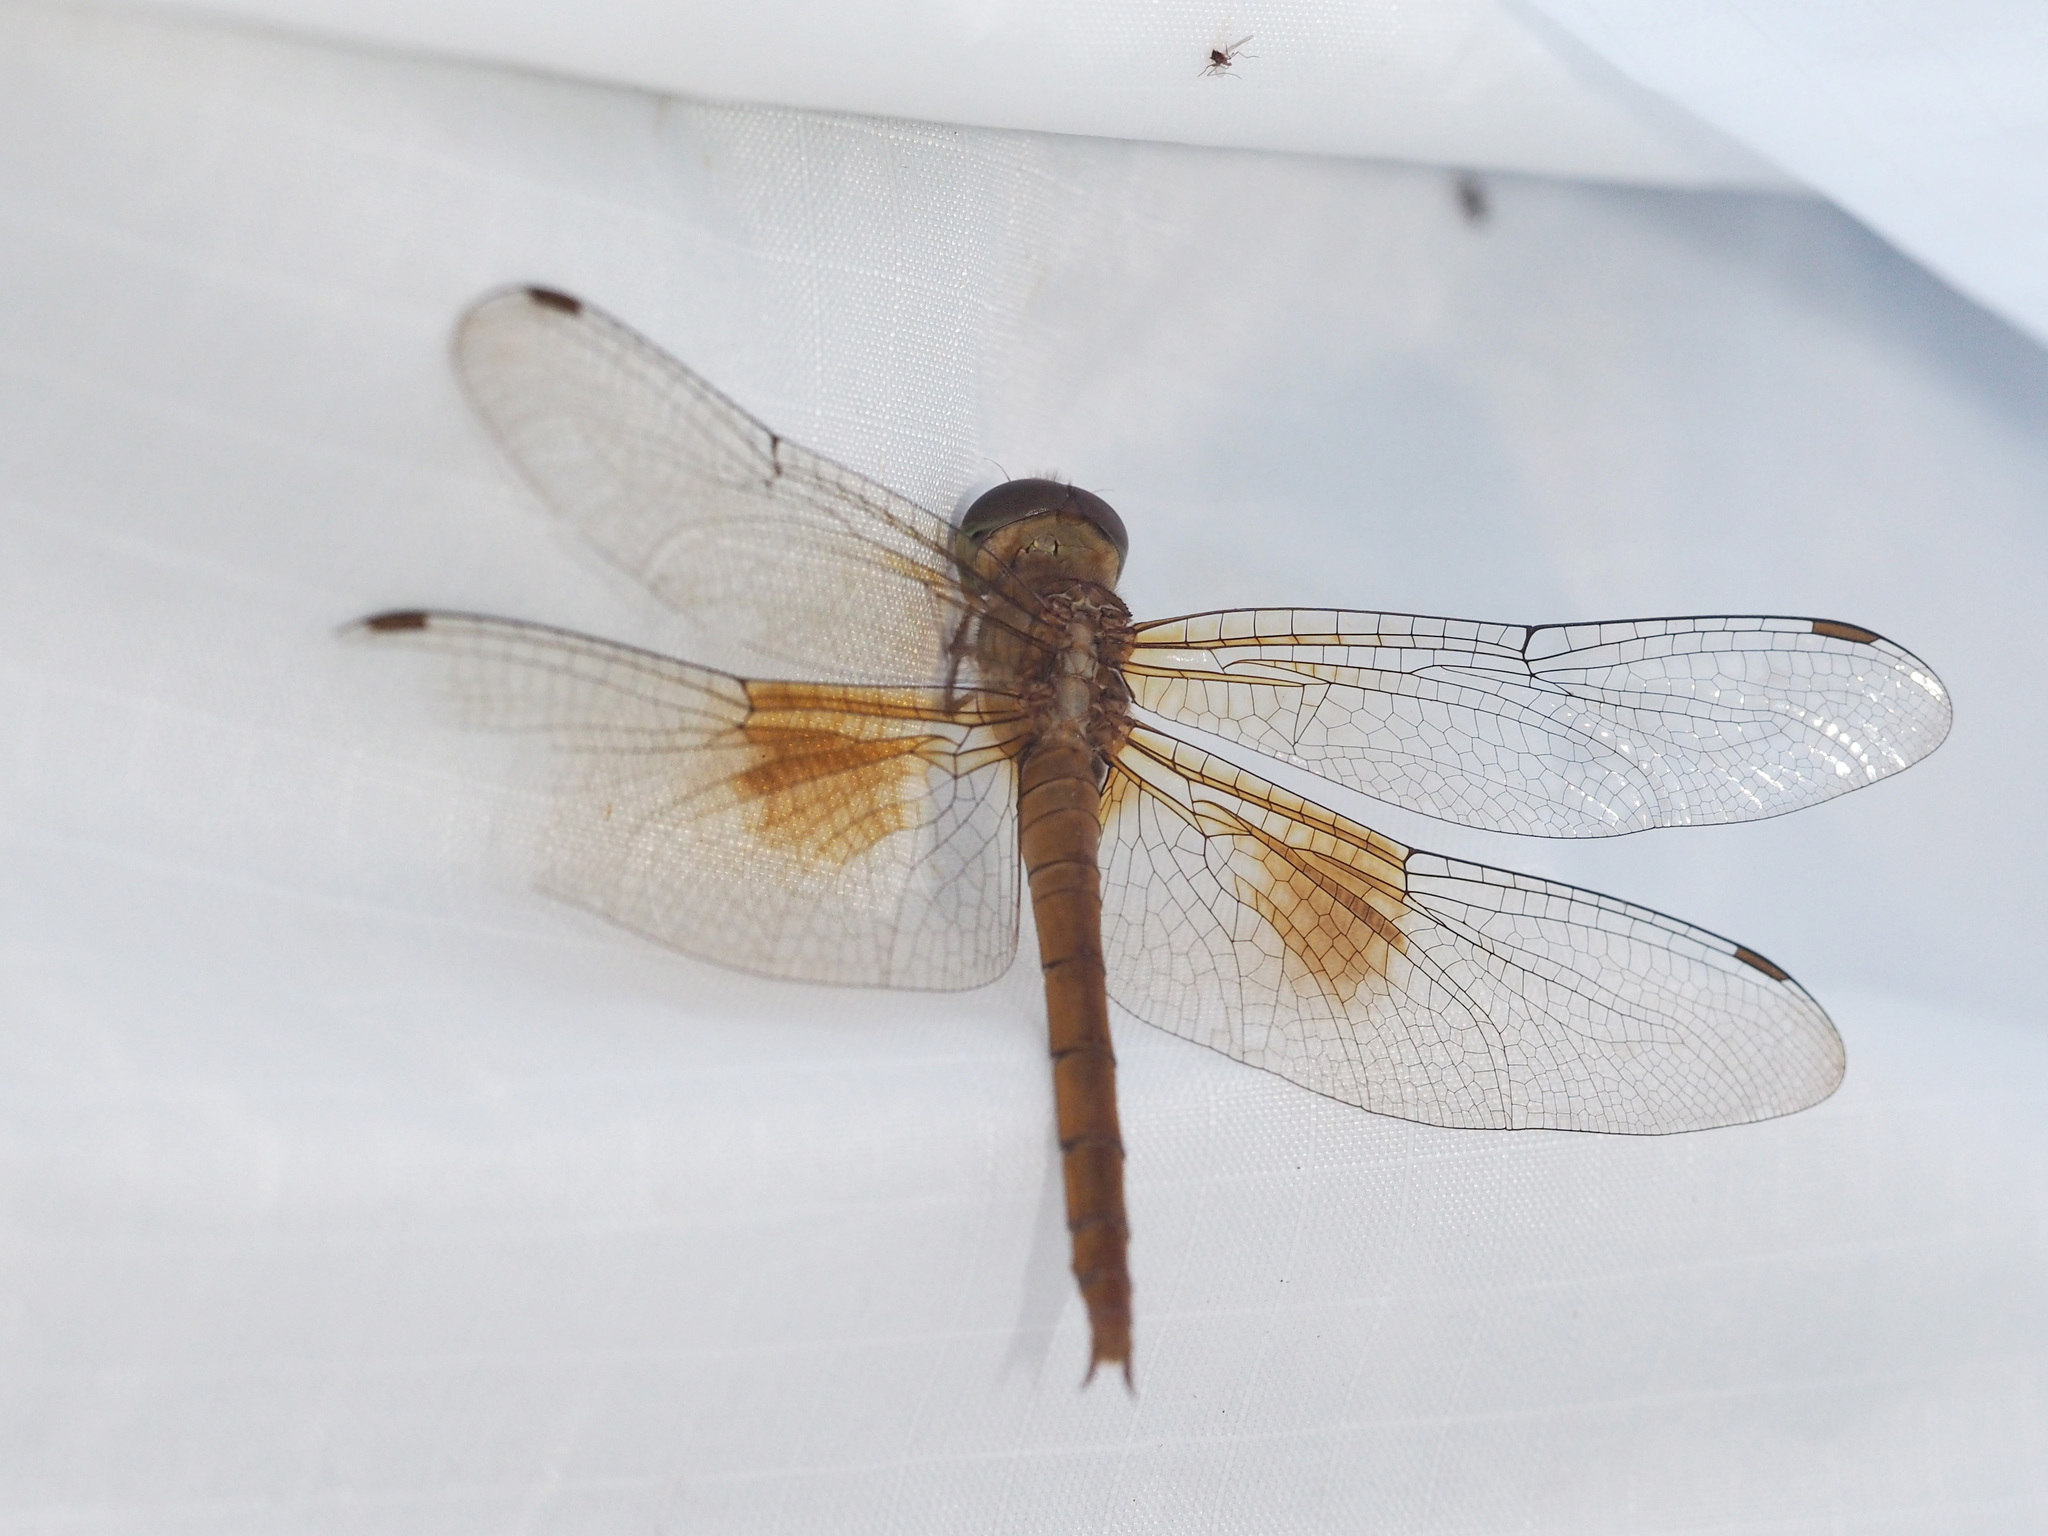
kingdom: Animalia
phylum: Arthropoda
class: Insecta
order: Odonata
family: Libellulidae
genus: Tholymis
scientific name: Tholymis tillarga
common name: Coral-tailed cloud wing
